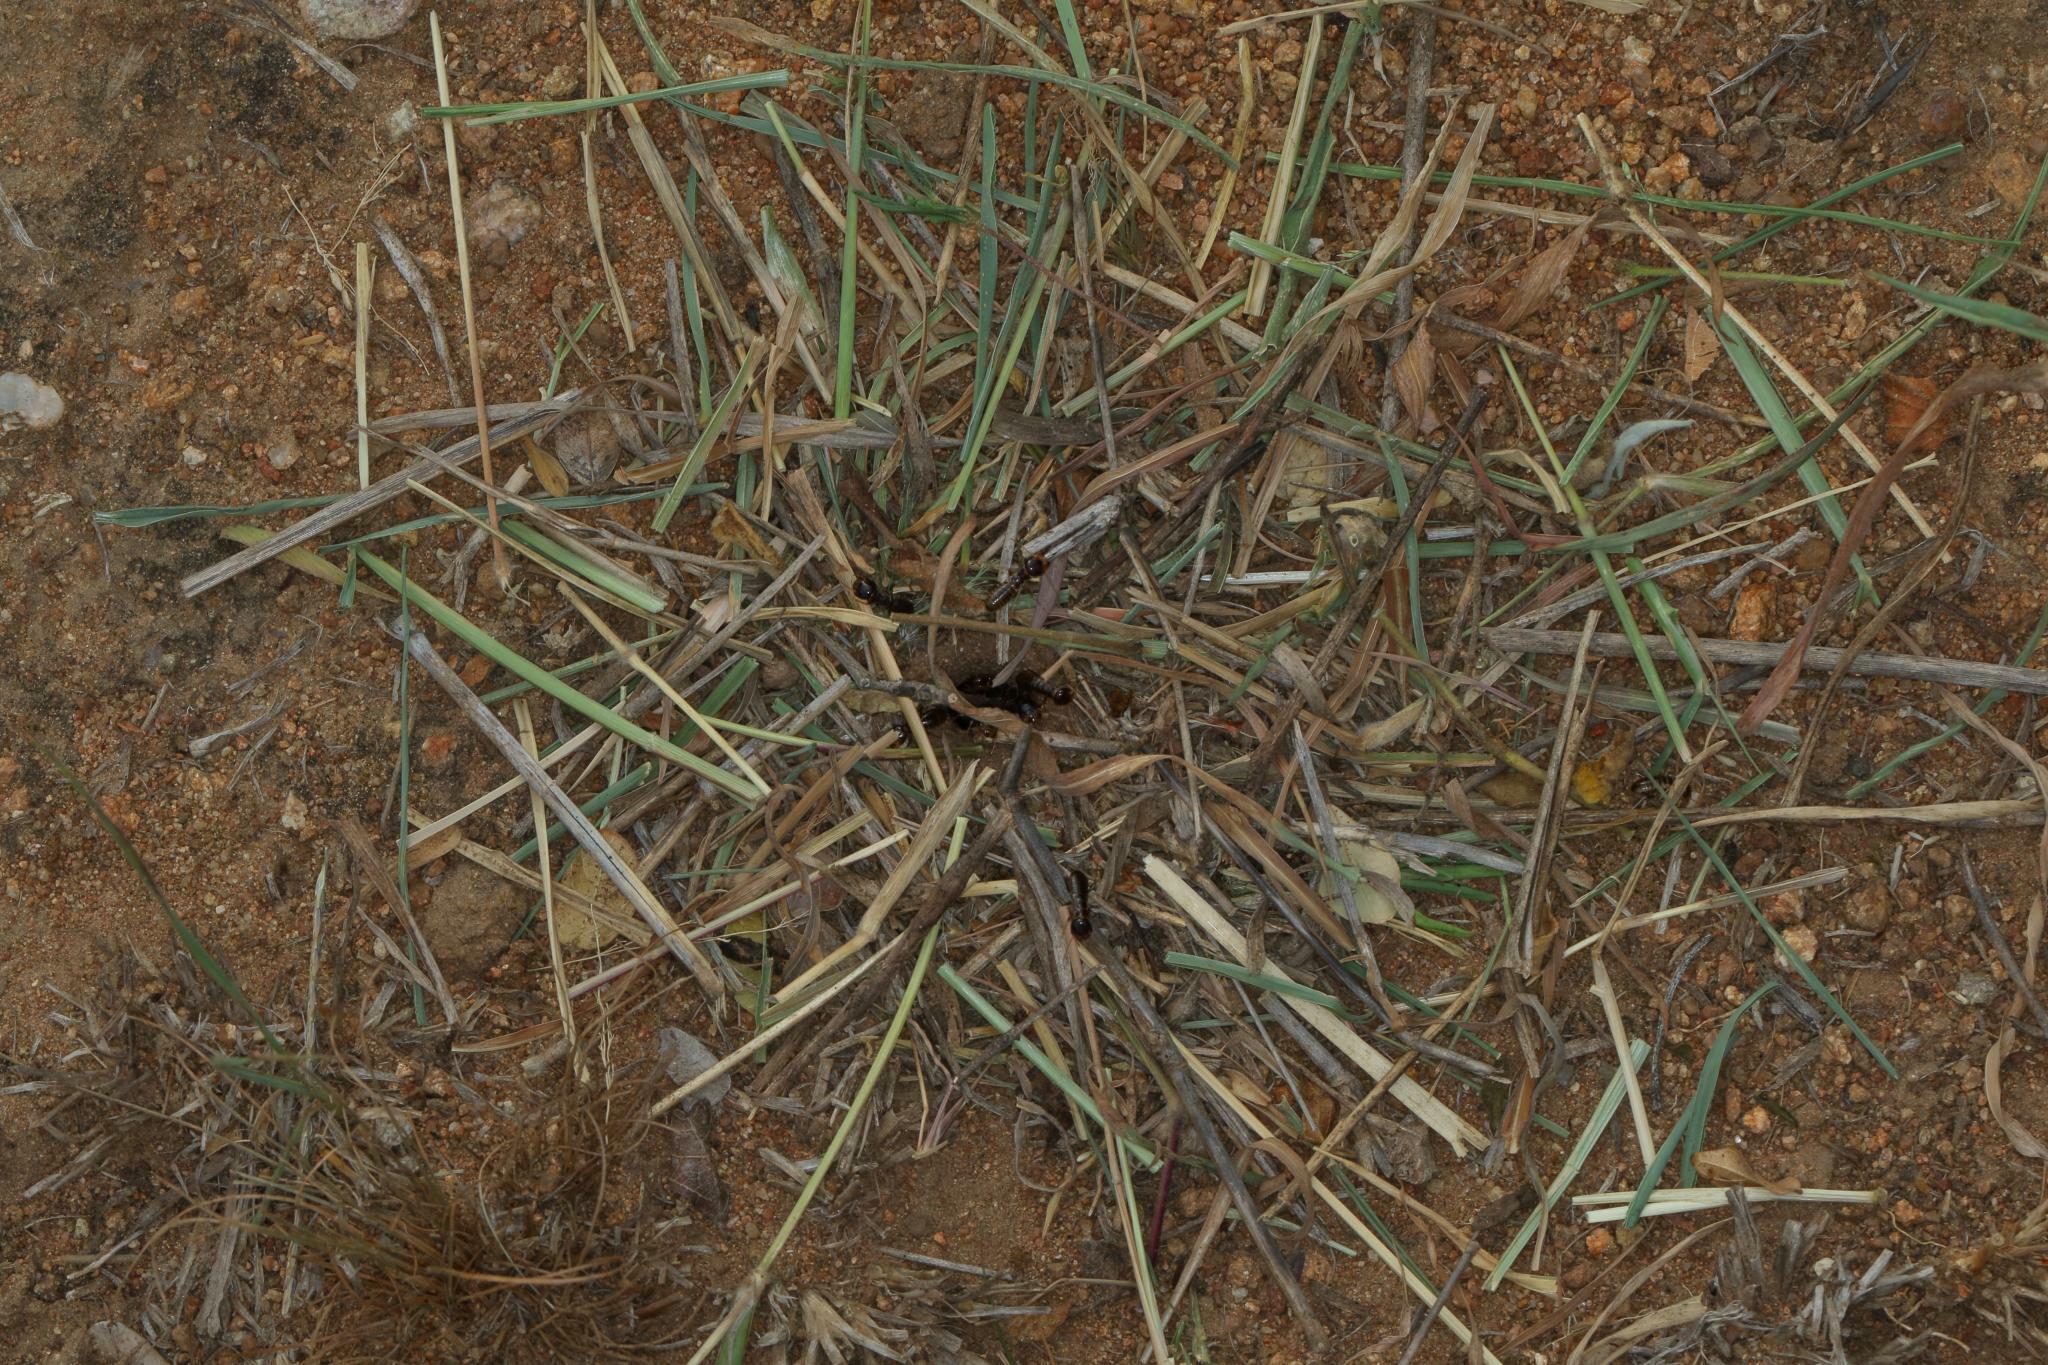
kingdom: Animalia
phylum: Arthropoda
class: Insecta
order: Blattodea
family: Hodotermitidae
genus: Hodotermes
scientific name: Hodotermes mossambicus
